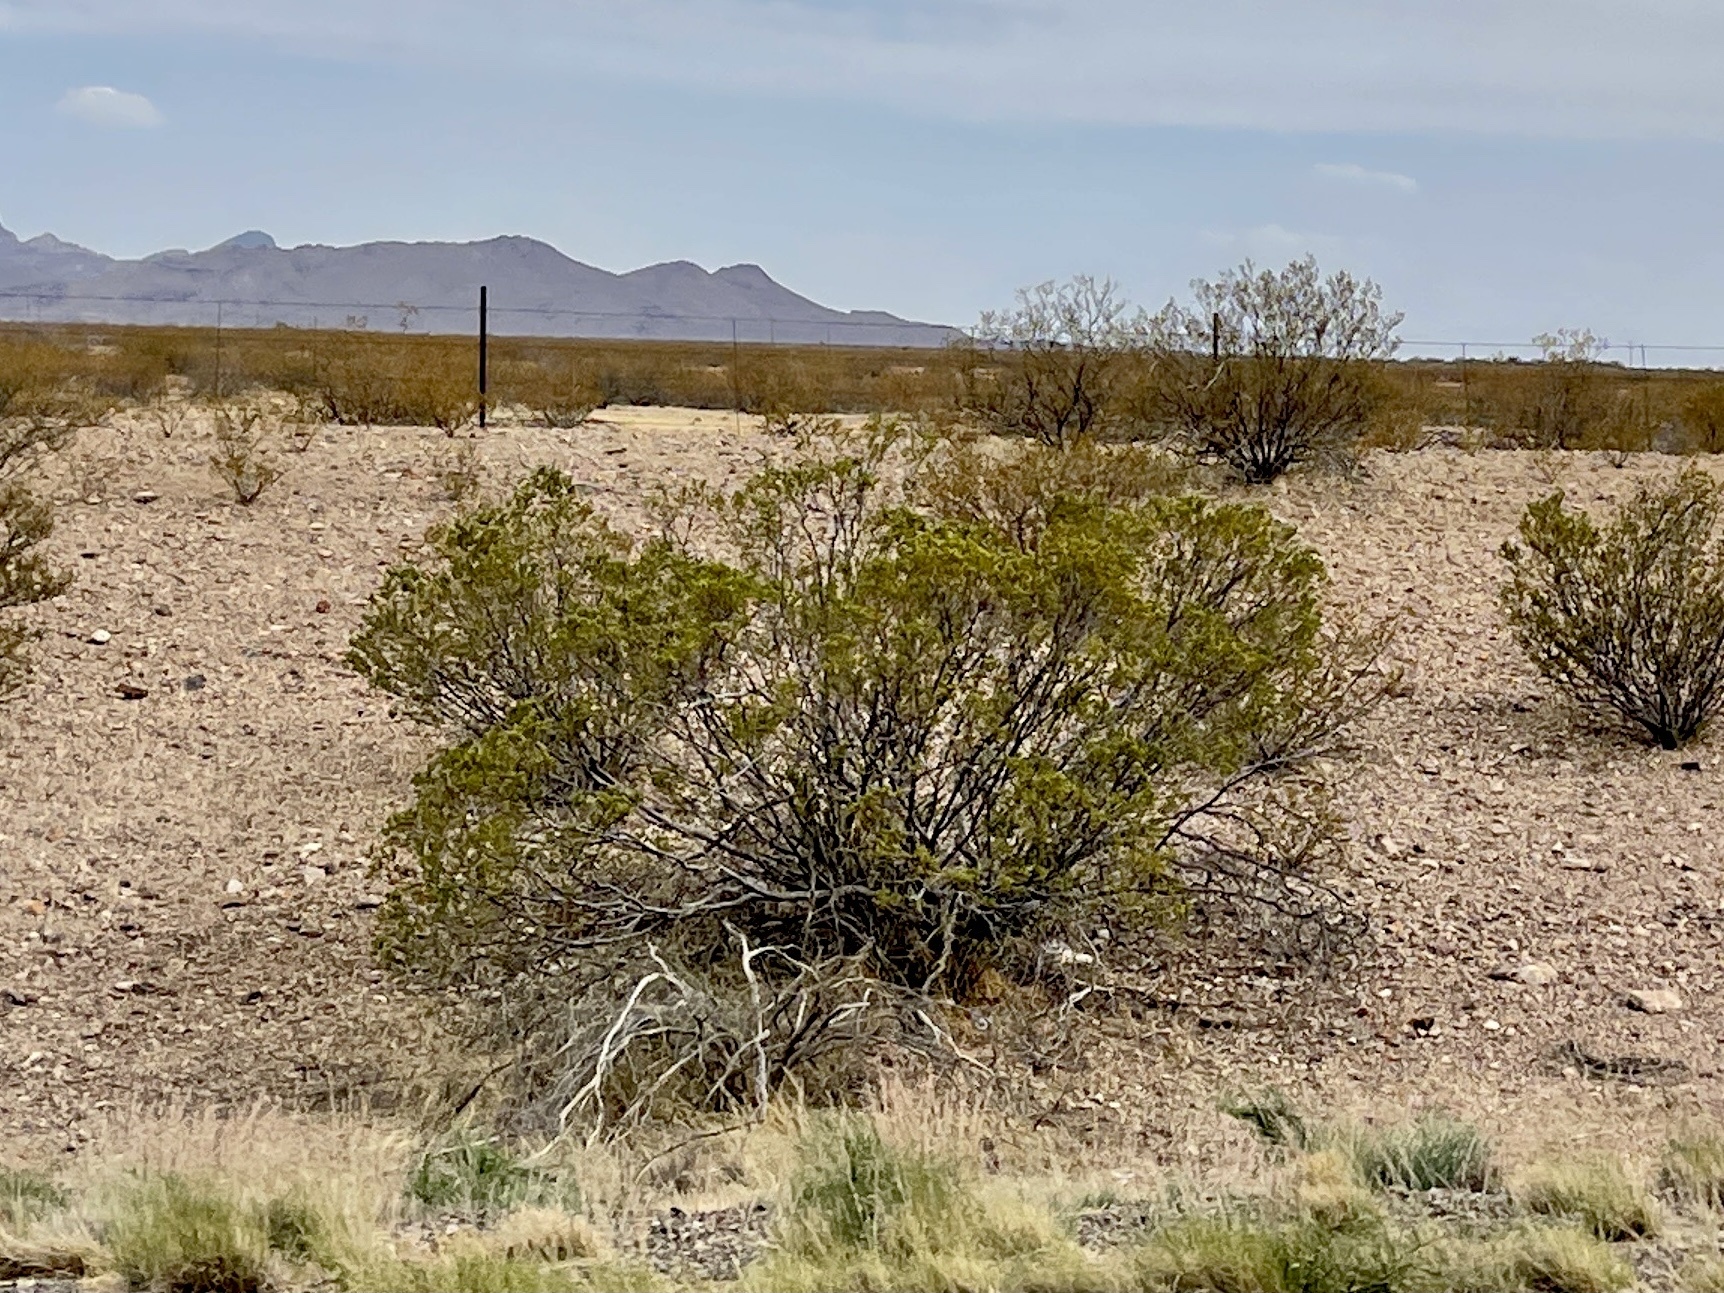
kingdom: Plantae
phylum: Tracheophyta
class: Magnoliopsida
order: Zygophyllales
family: Zygophyllaceae
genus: Larrea
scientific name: Larrea tridentata
